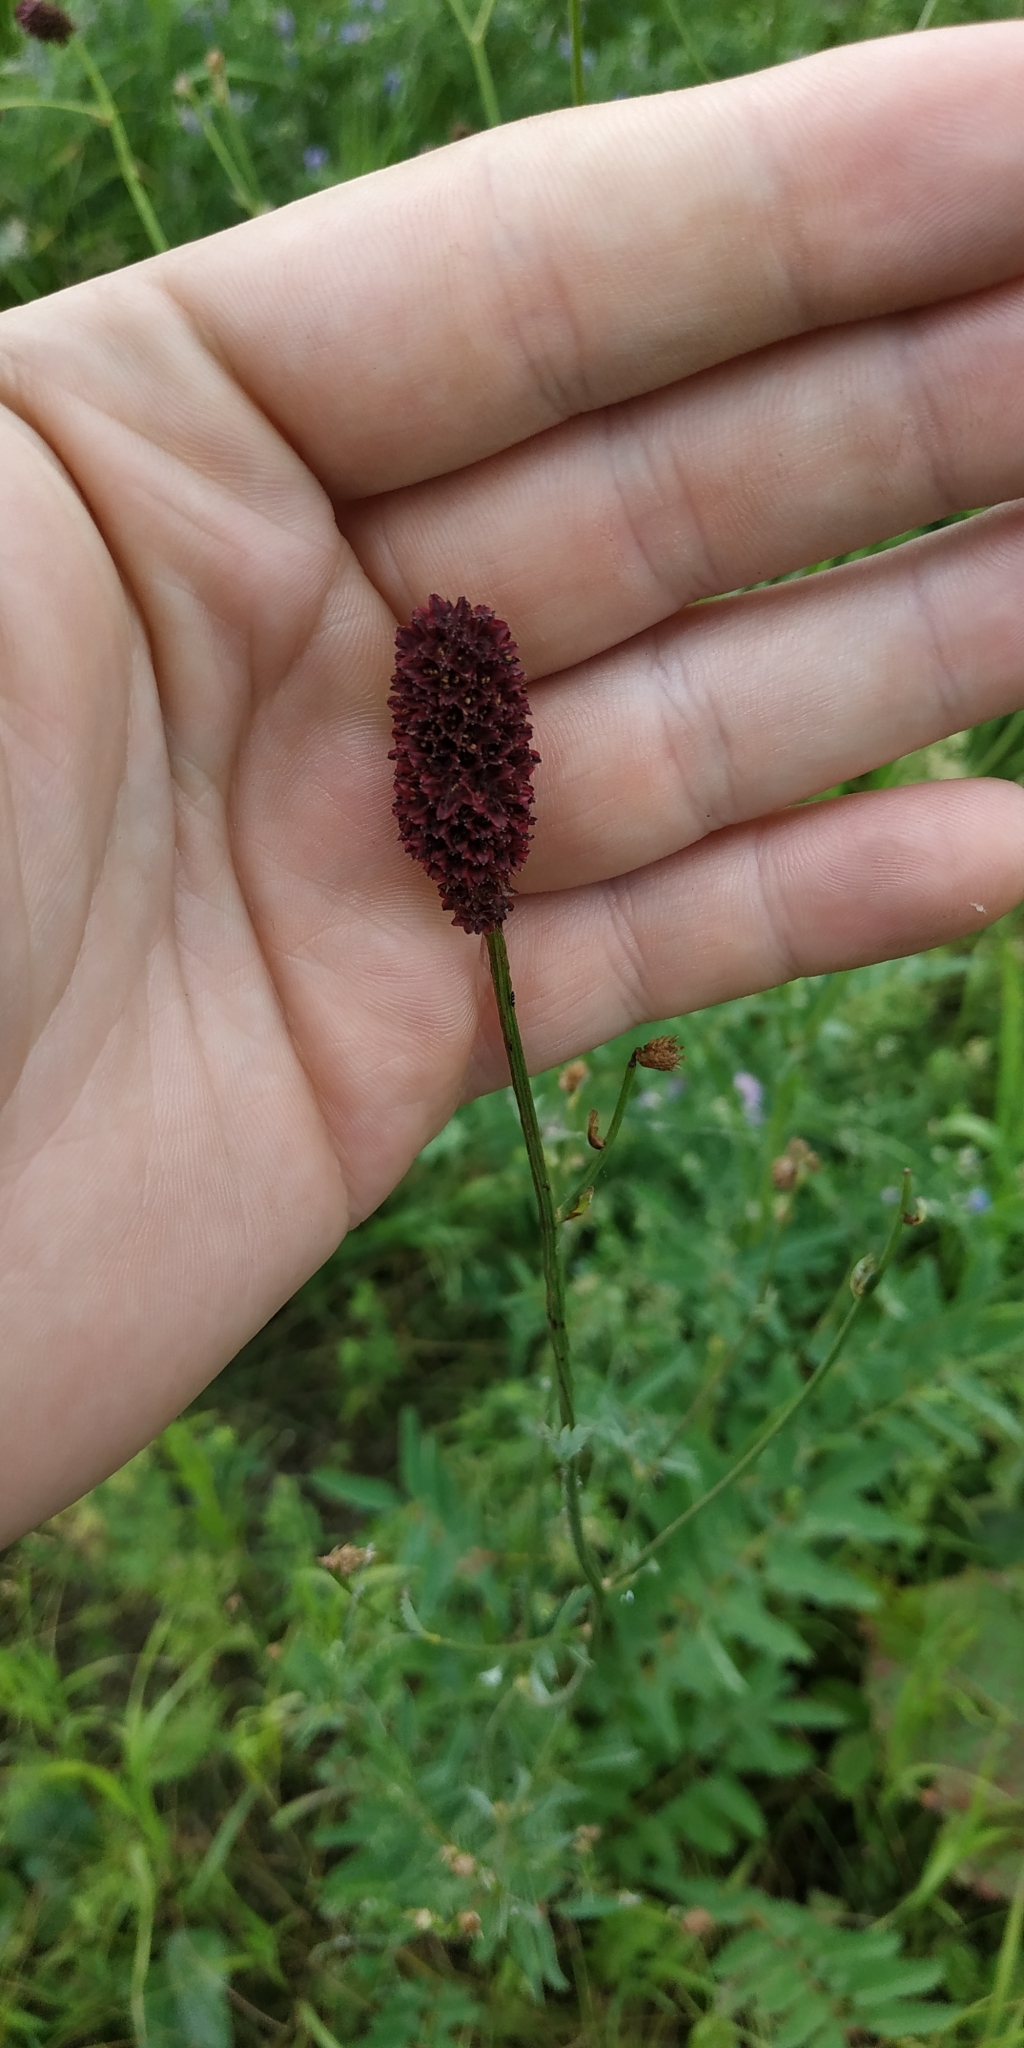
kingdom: Plantae
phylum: Tracheophyta
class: Magnoliopsida
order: Rosales
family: Rosaceae
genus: Sanguisorba
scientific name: Sanguisorba officinalis
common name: Great burnet
